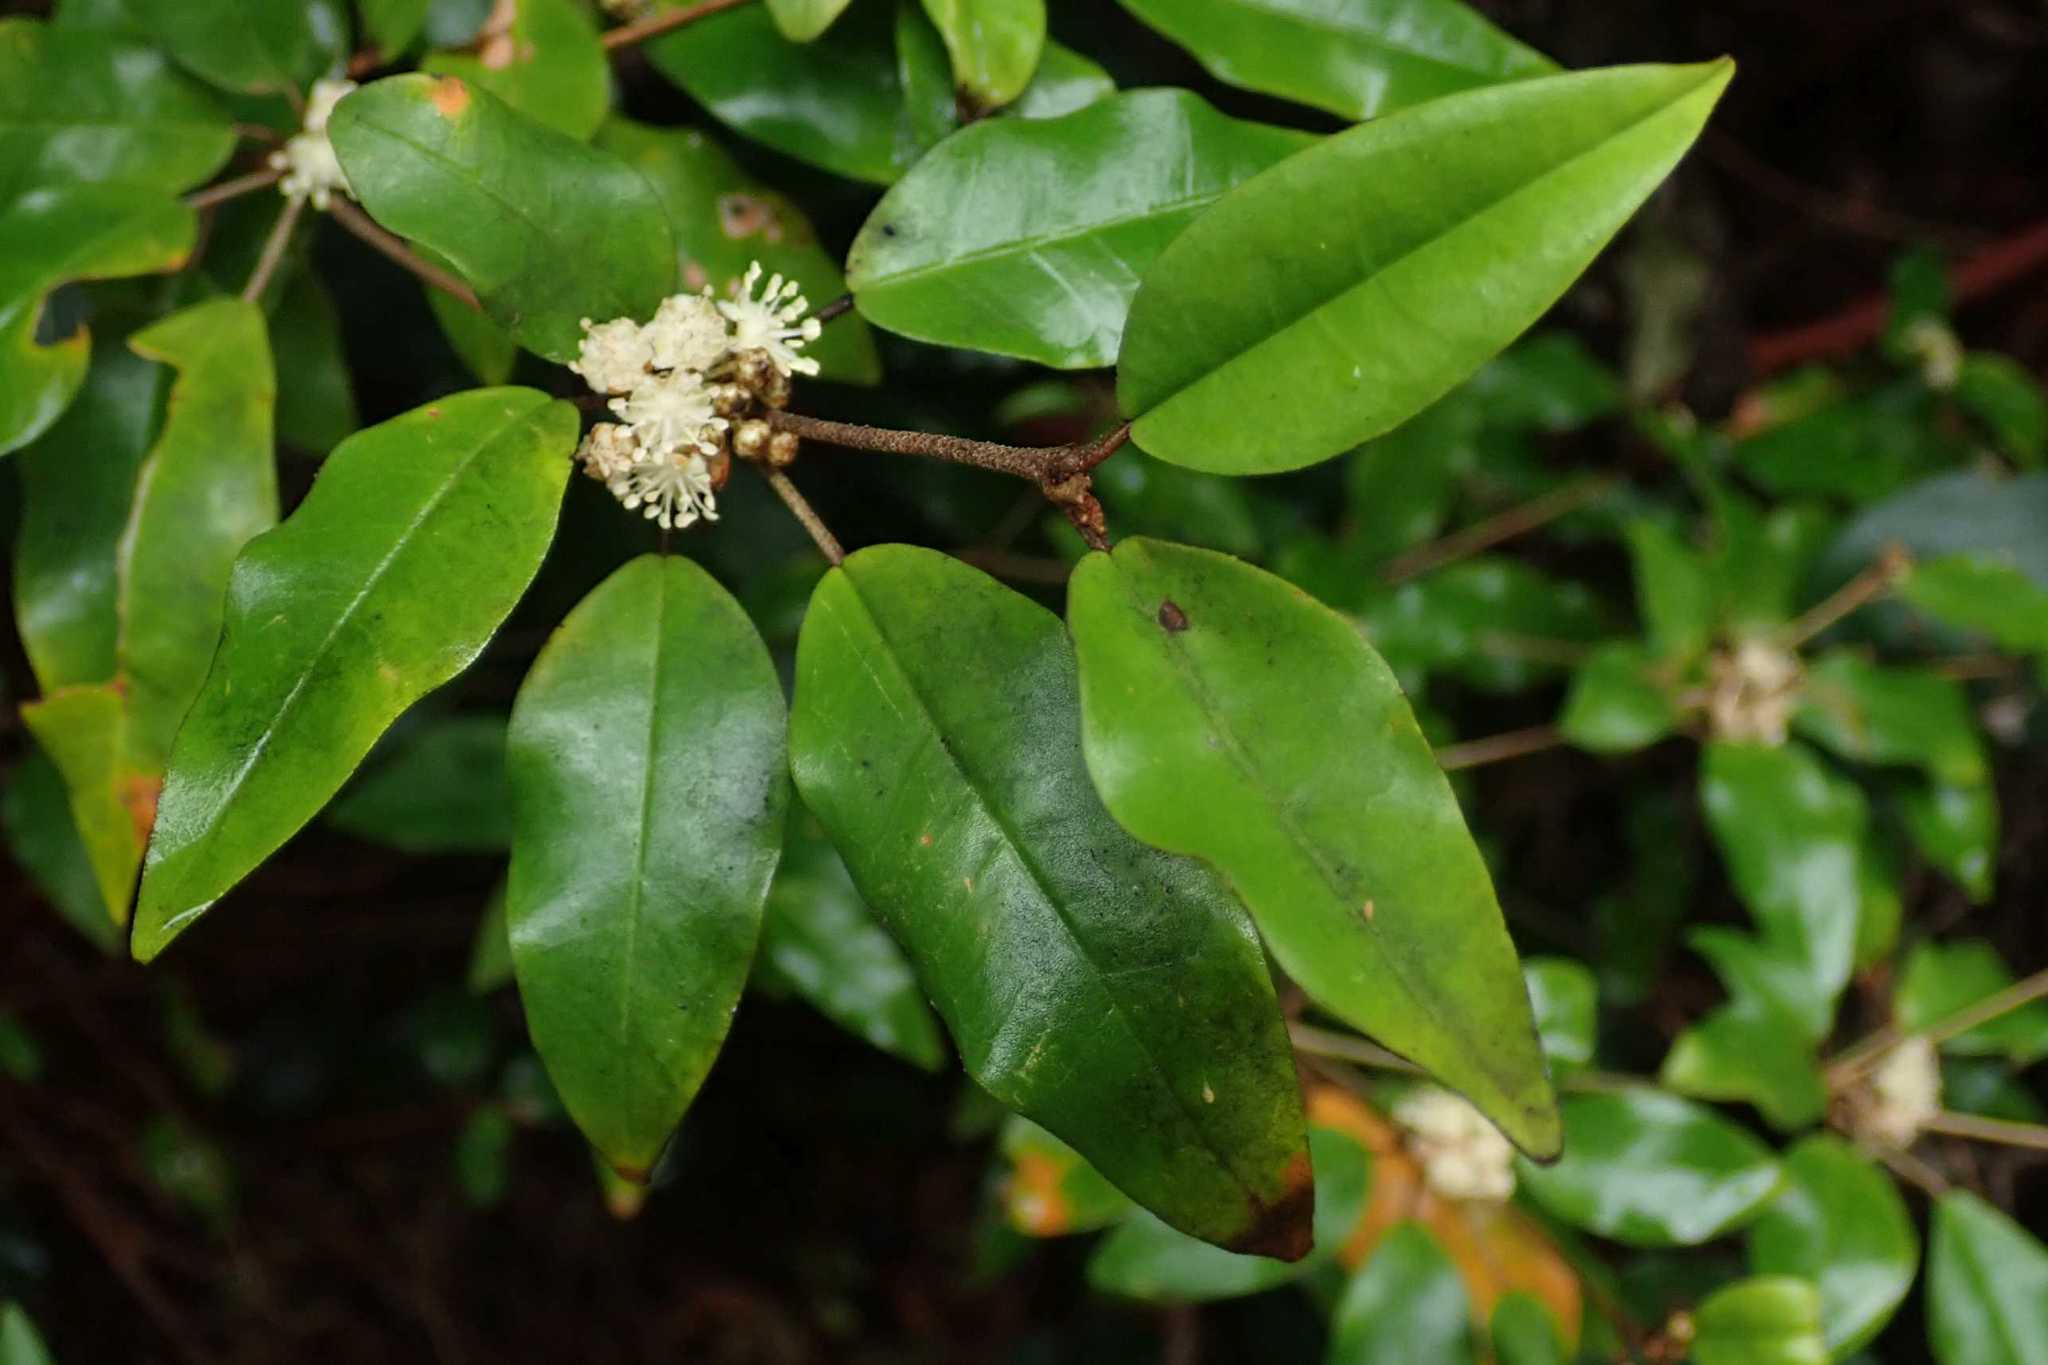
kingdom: Plantae
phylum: Tracheophyta
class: Magnoliopsida
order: Malpighiales
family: Euphorbiaceae
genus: Croton
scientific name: Croton pseudopulchellus
